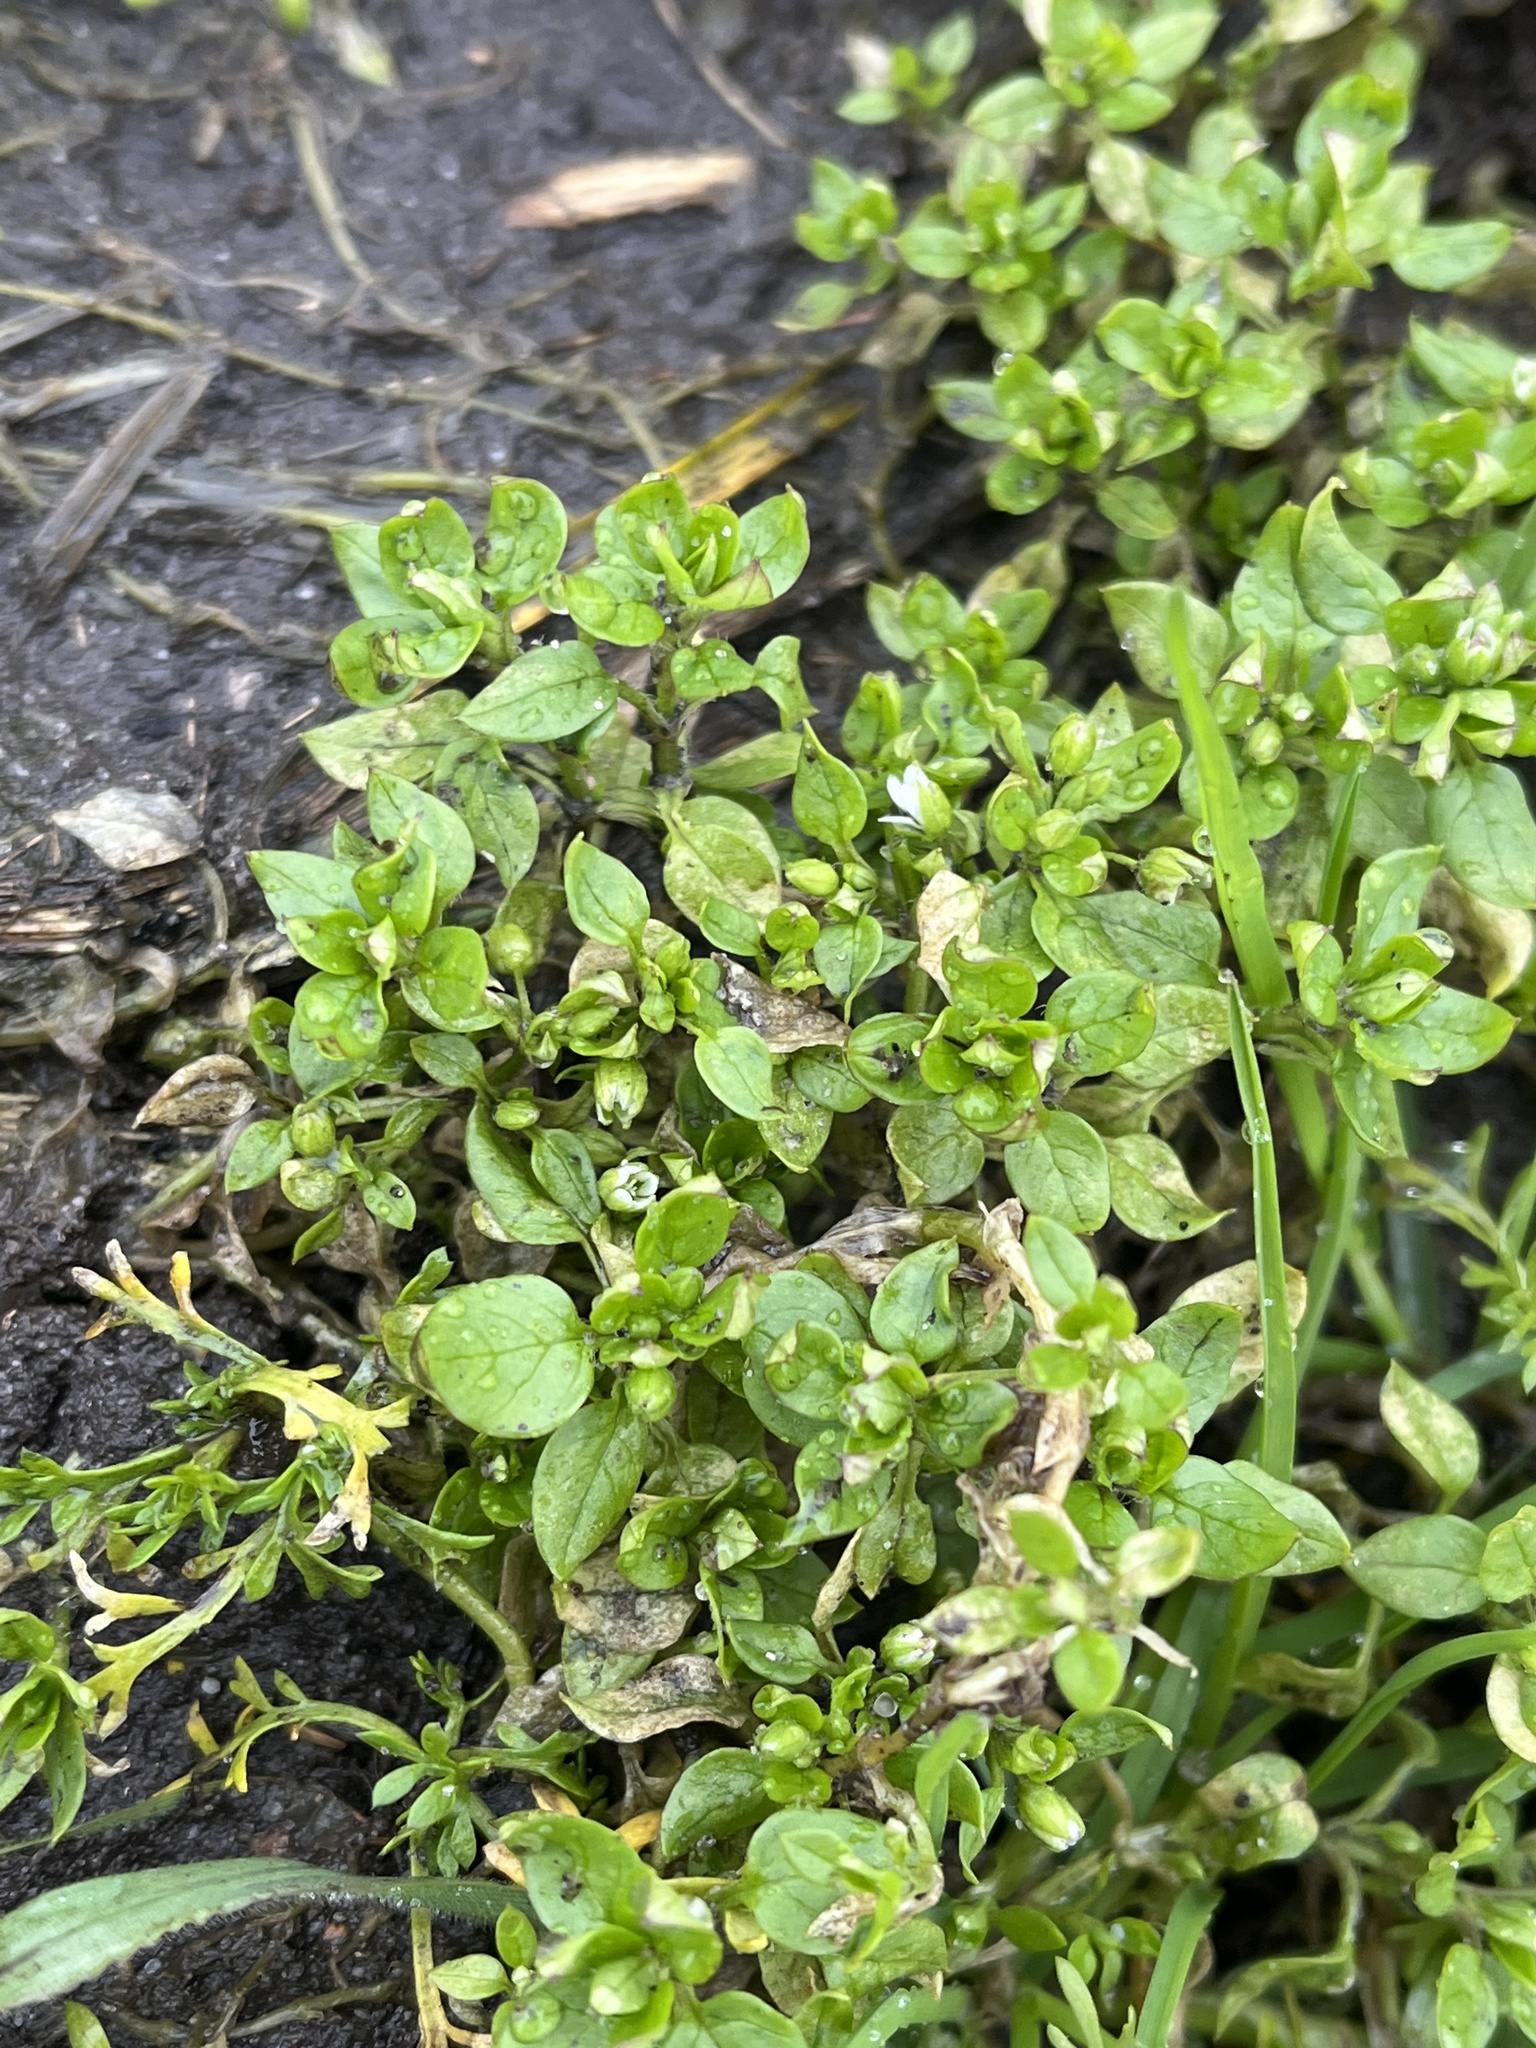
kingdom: Plantae
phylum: Tracheophyta
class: Magnoliopsida
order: Caryophyllales
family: Caryophyllaceae
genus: Stellaria
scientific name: Stellaria media
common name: Common chickweed
